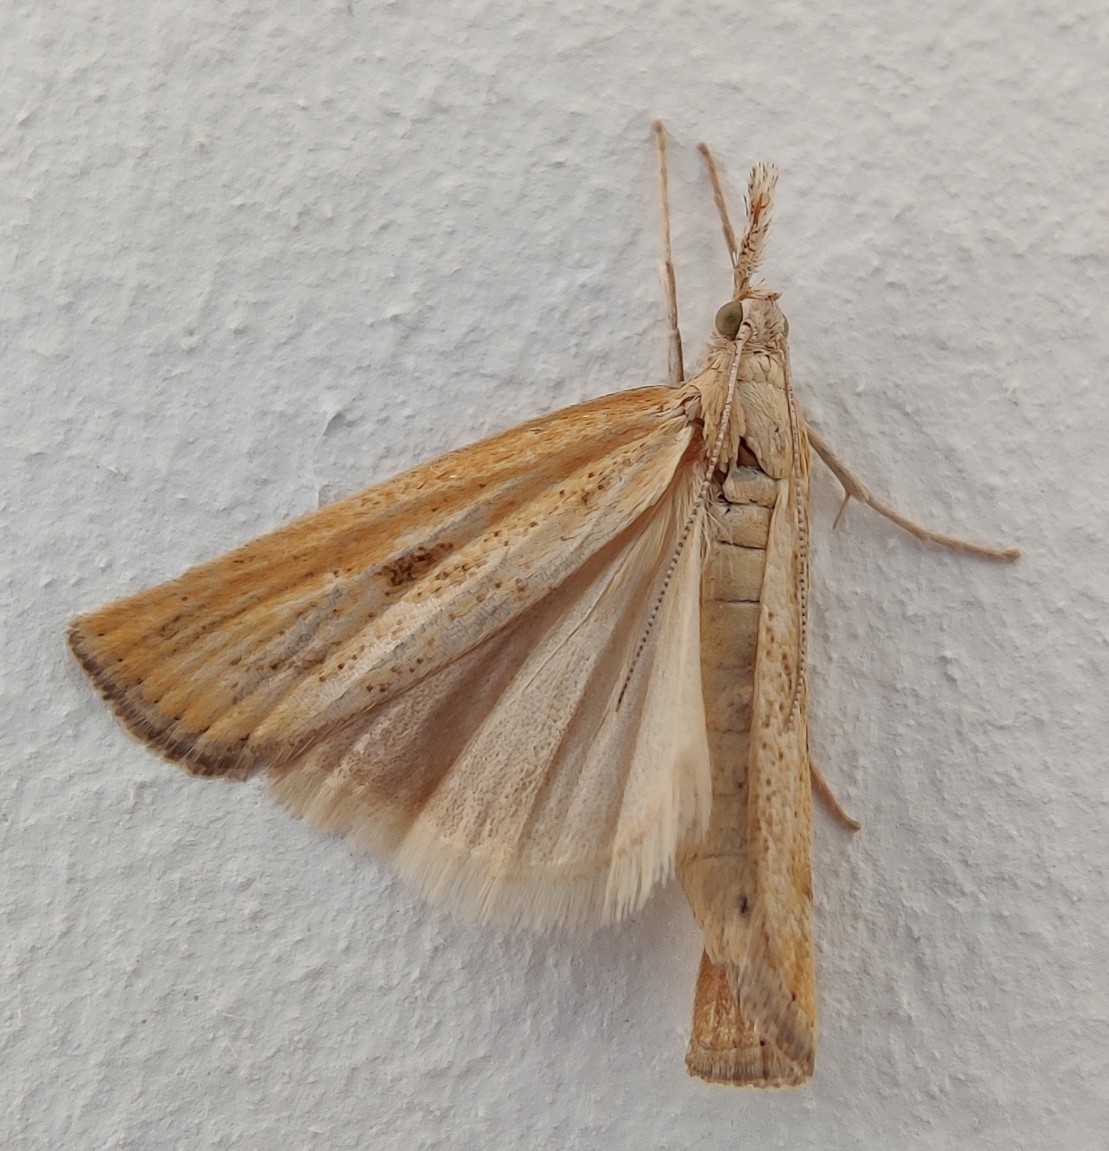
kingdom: Animalia
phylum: Arthropoda
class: Insecta
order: Lepidoptera
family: Crambidae
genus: Agriphila
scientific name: Agriphila inquinatella
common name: Barred grass-veneer
